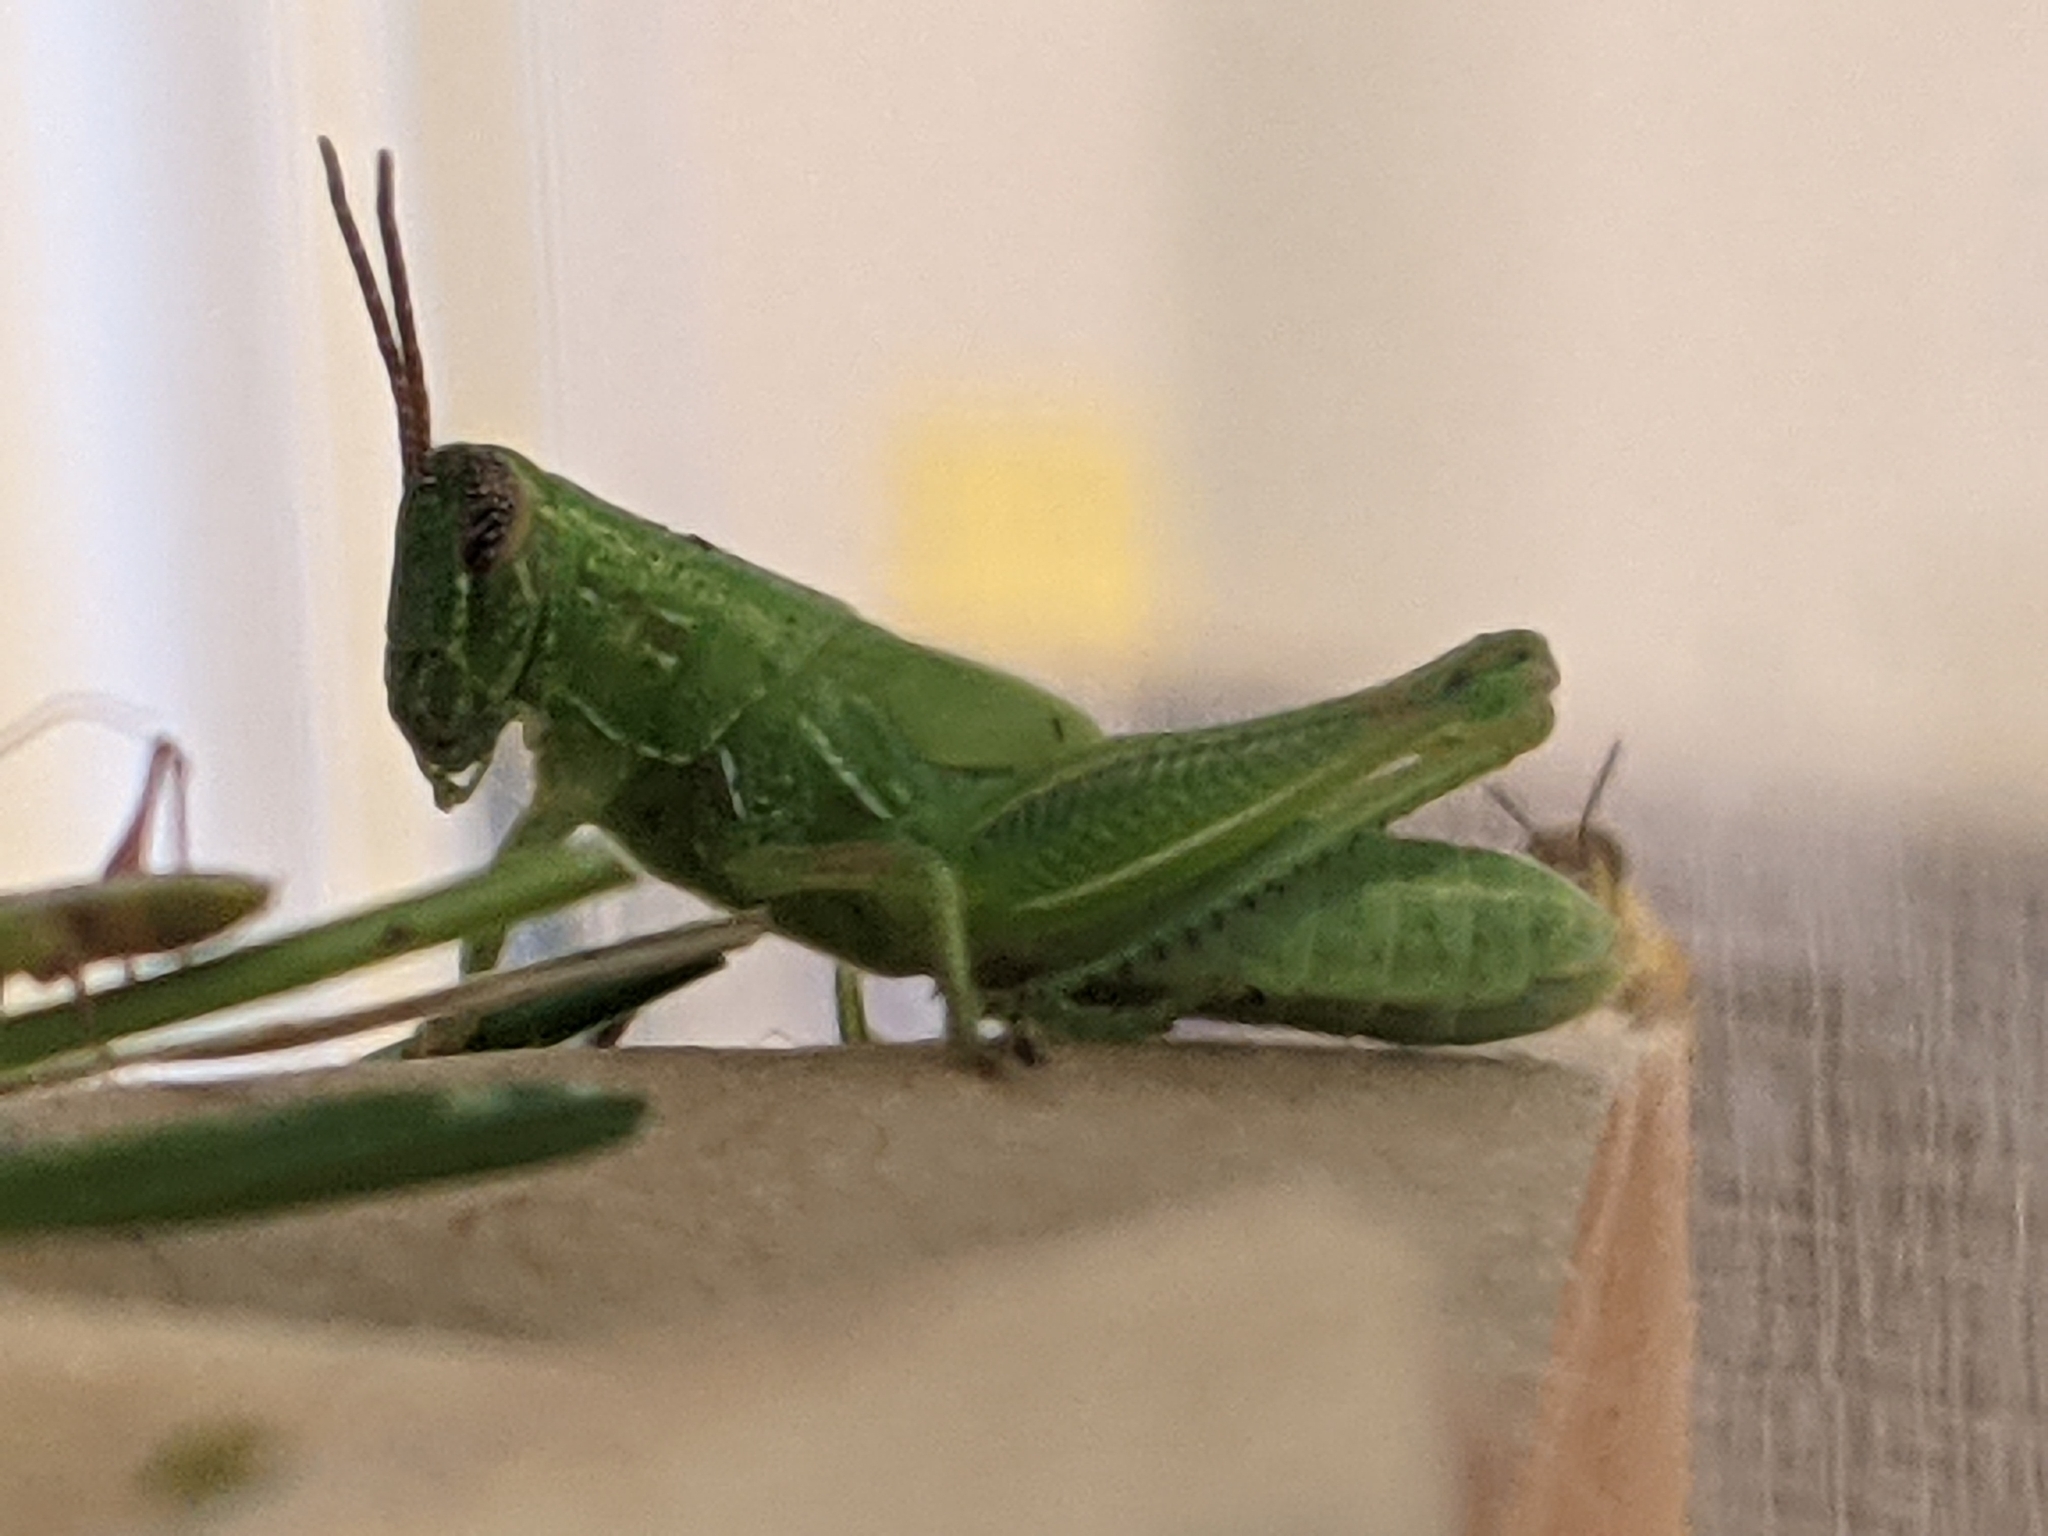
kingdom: Animalia
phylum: Arthropoda
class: Insecta
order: Orthoptera
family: Acrididae
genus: Hesperotettix
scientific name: Hesperotettix viridis
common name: Meadow purple-striped grasshopper
